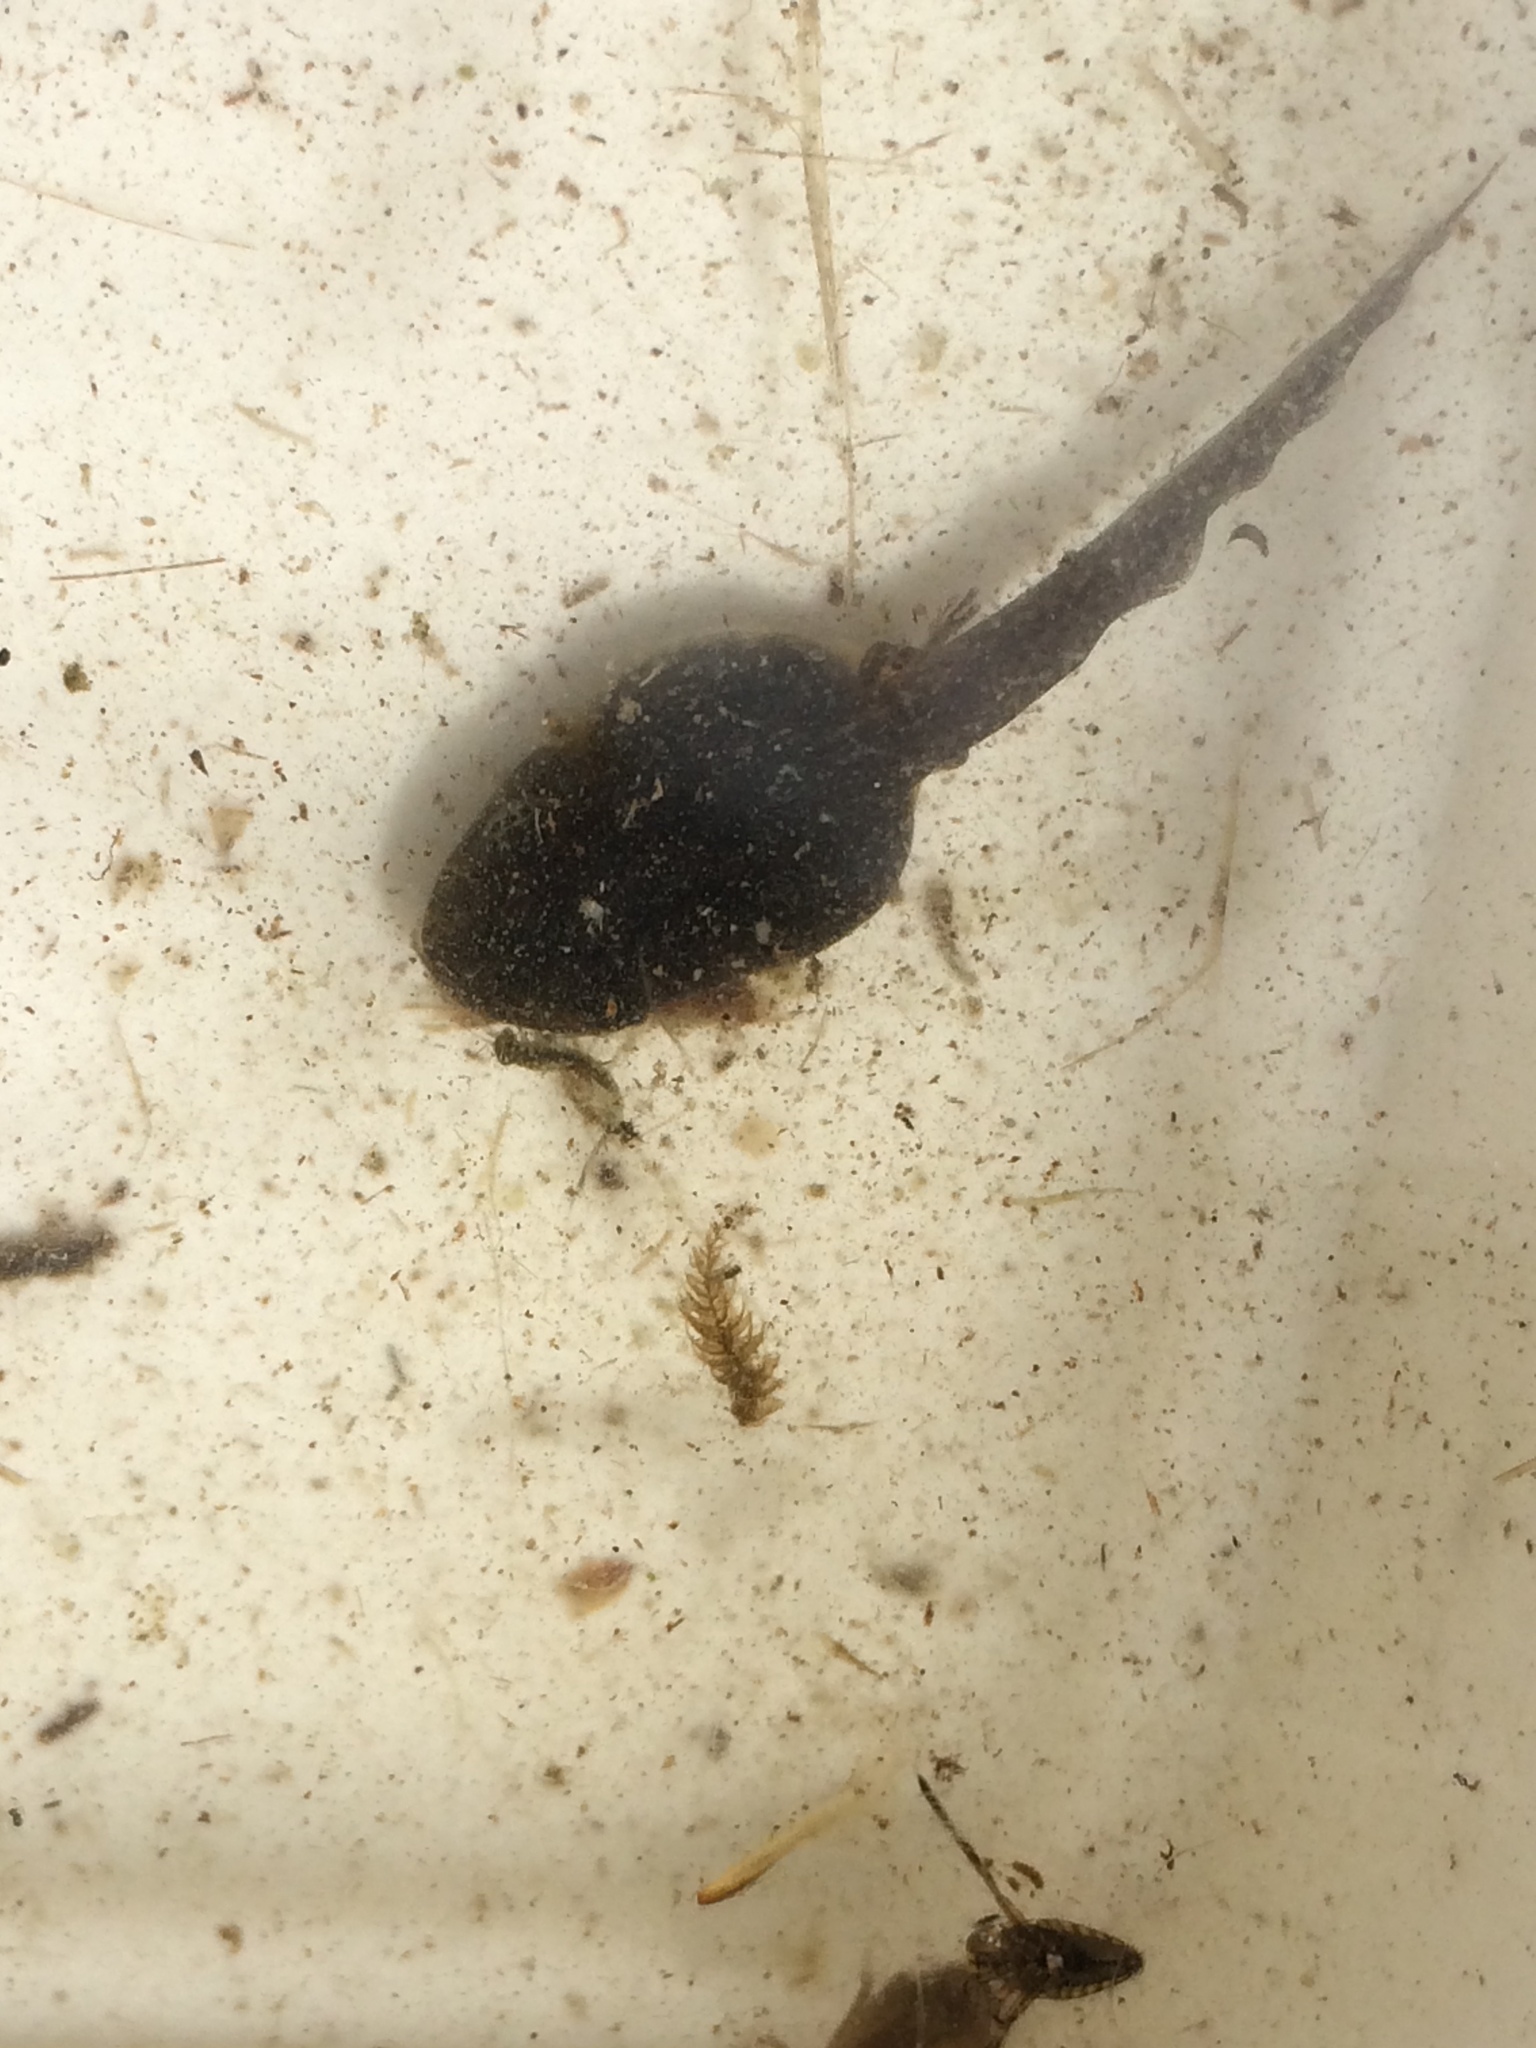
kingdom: Animalia
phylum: Chordata
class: Amphibia
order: Anura
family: Hylidae
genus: Pseudacris
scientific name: Pseudacris regilla
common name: Pacific chorus frog
